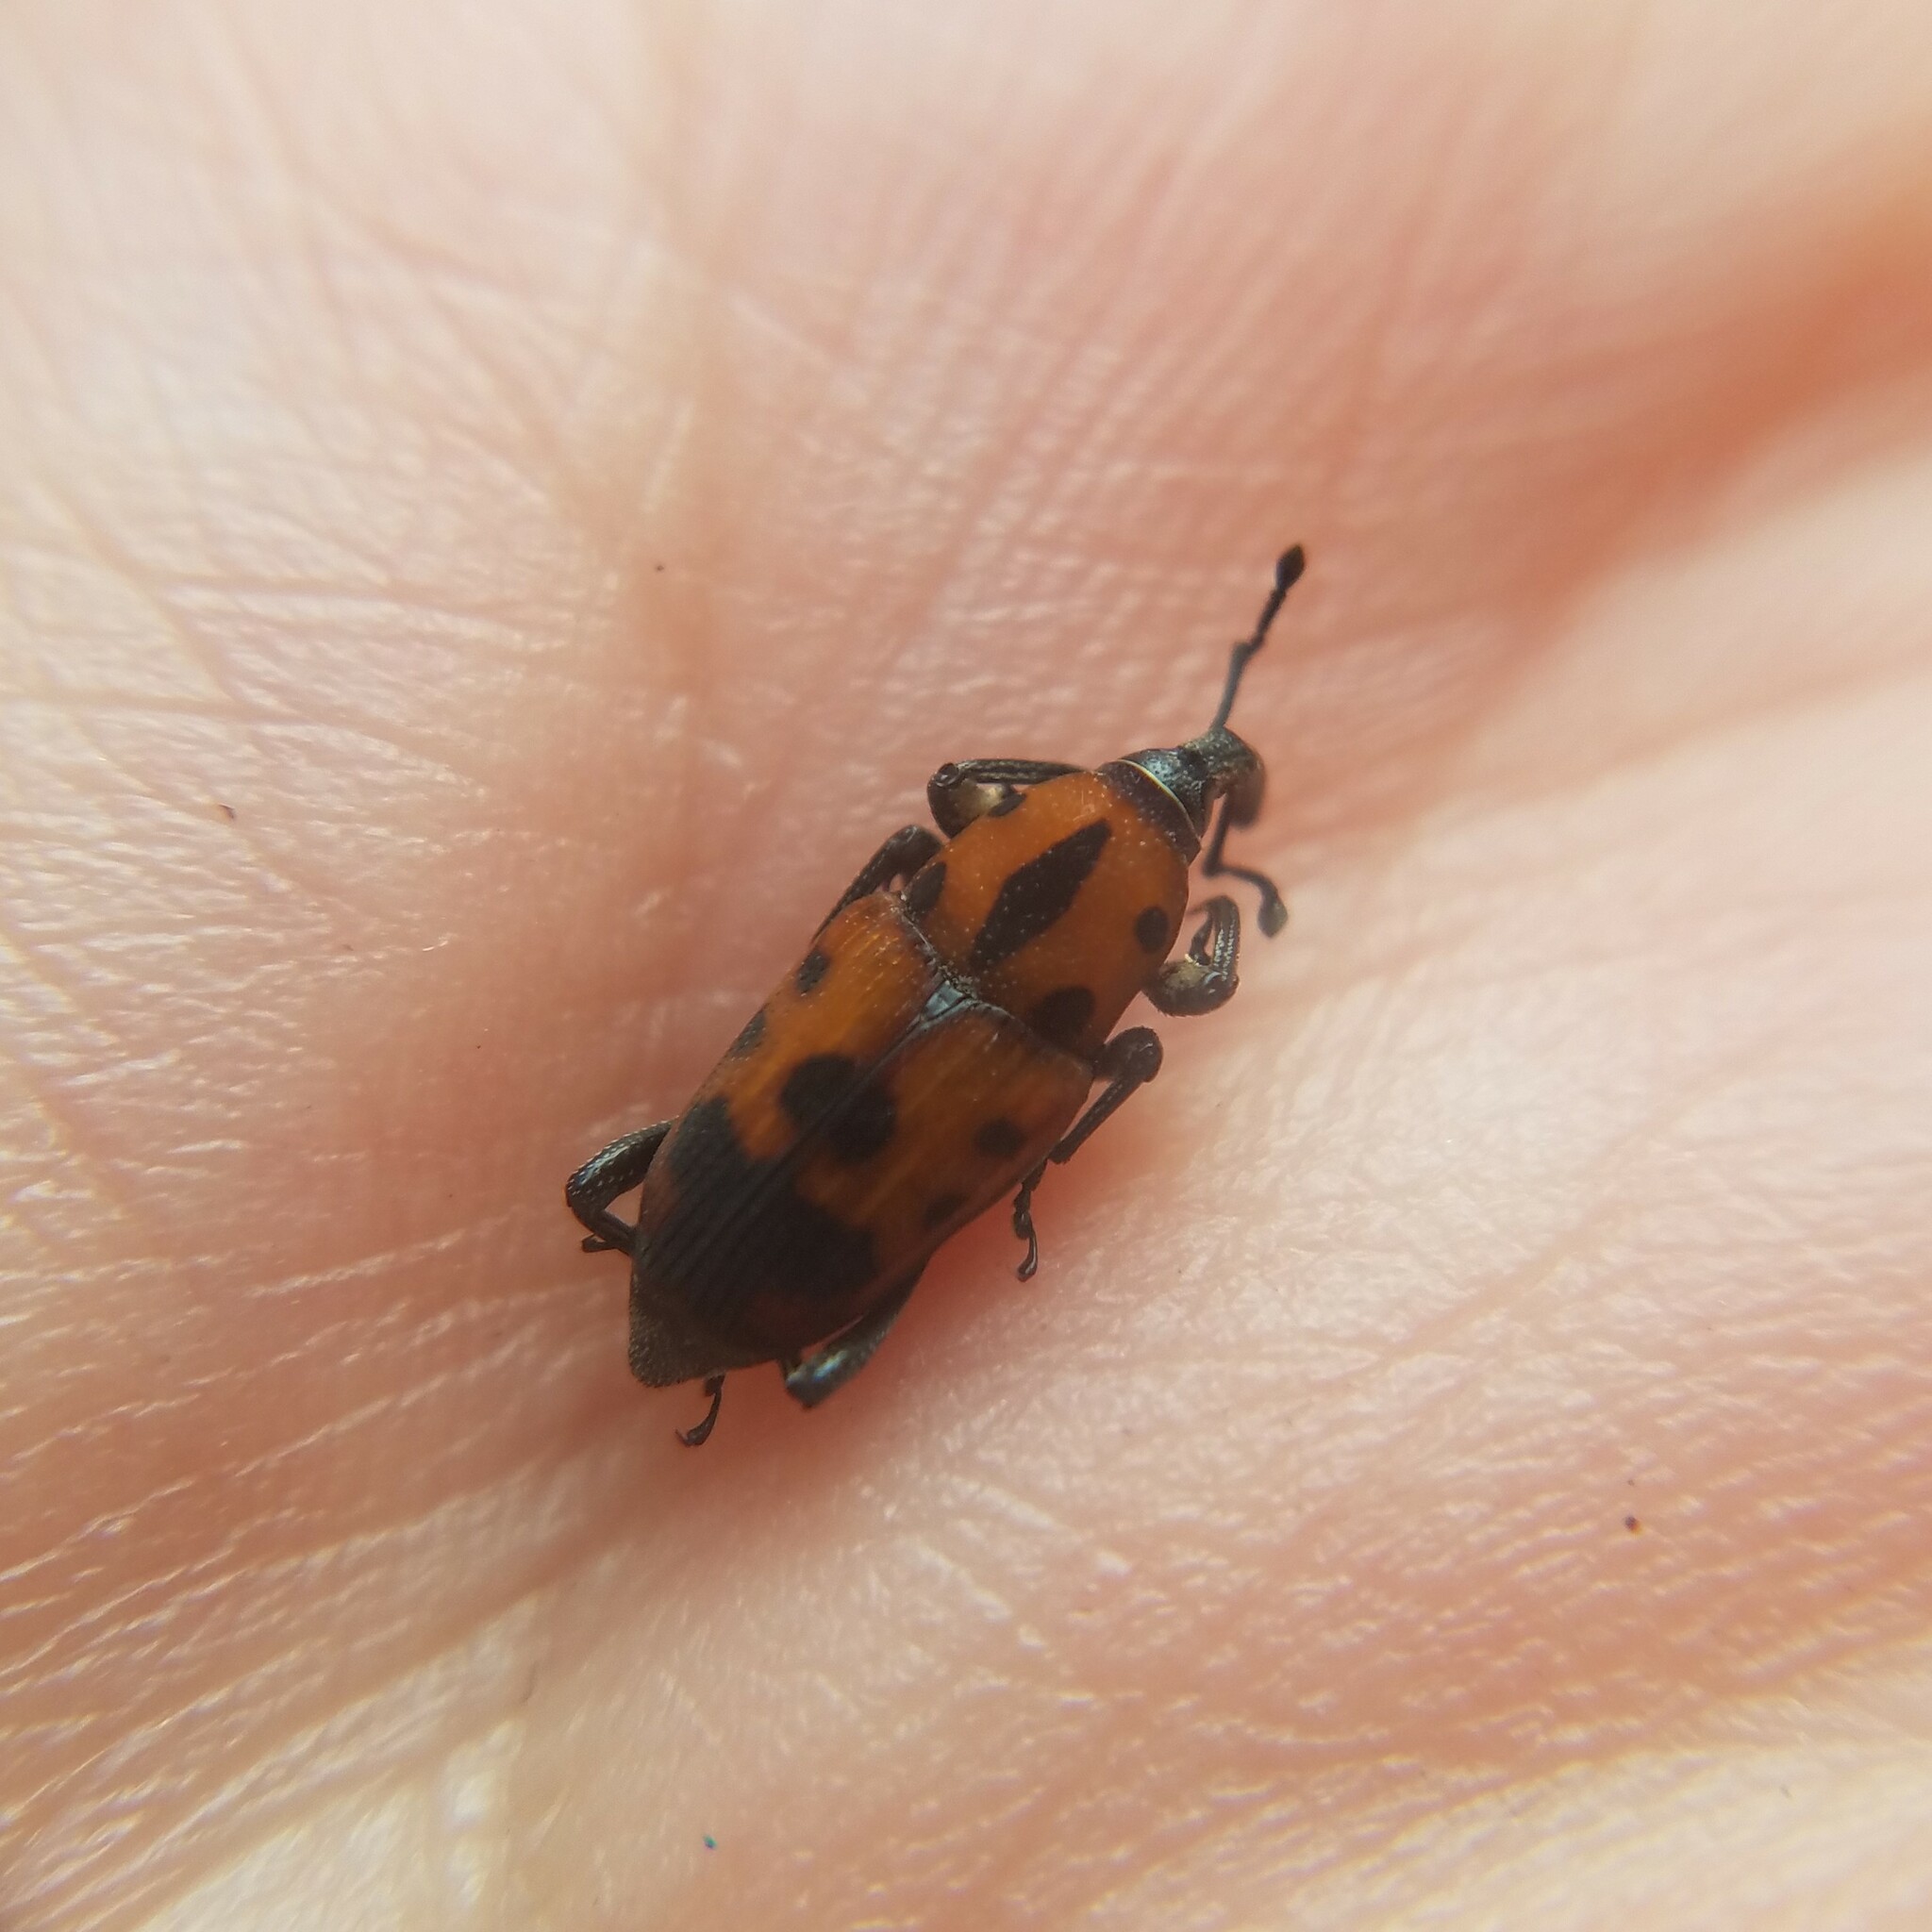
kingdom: Animalia
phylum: Arthropoda
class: Insecta
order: Coleoptera
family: Dryophthoridae
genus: Rhodobaenus
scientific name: Rhodobaenus quinquepunctatus
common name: Cocklebur weevil
